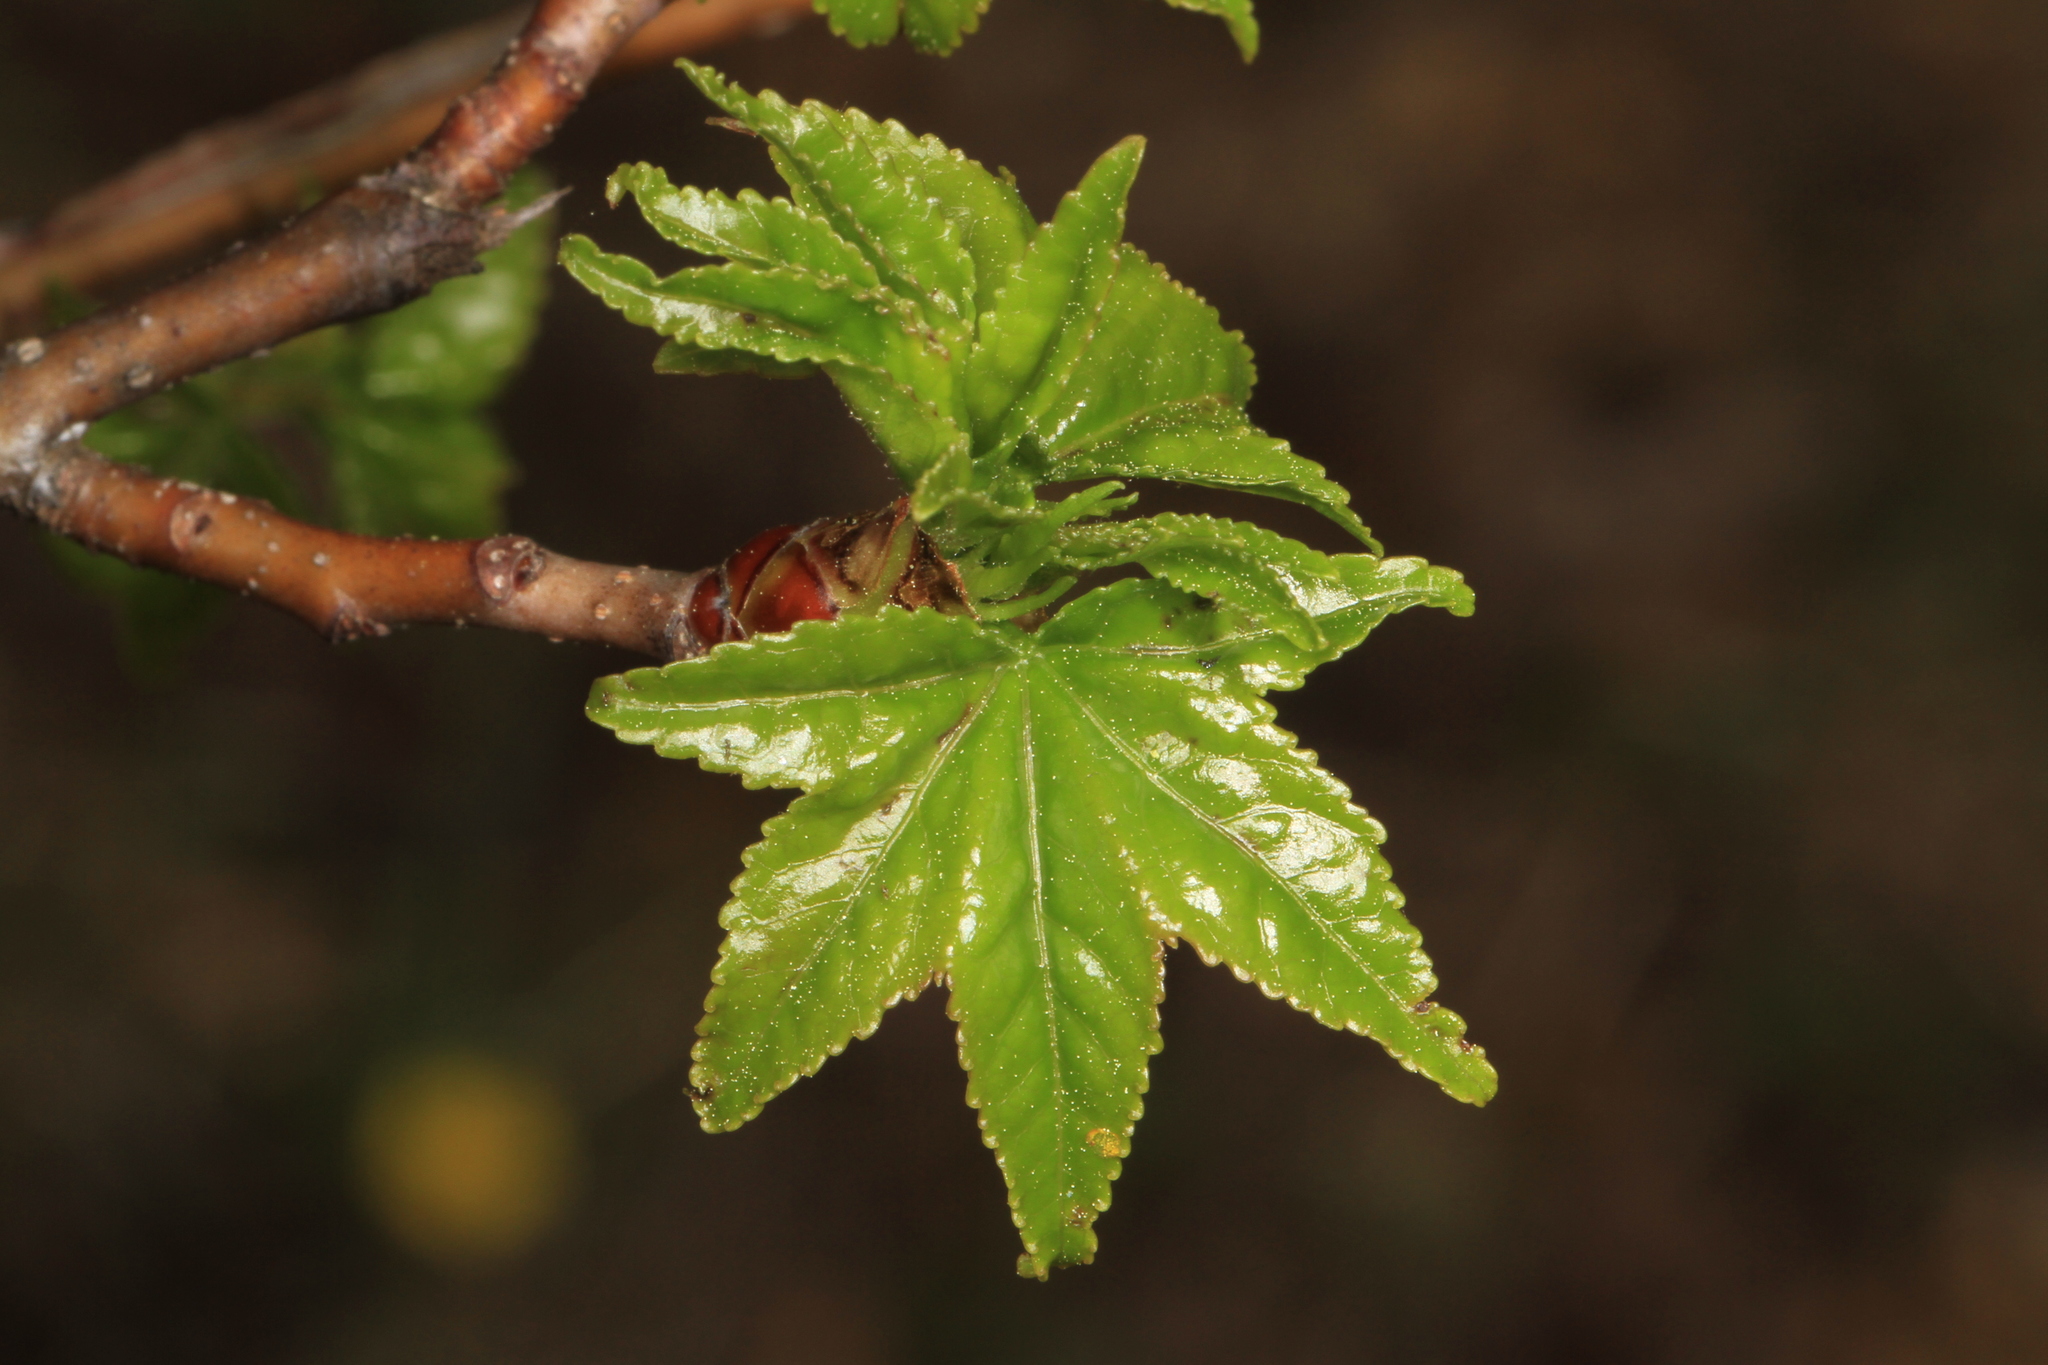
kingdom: Plantae
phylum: Tracheophyta
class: Magnoliopsida
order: Saxifragales
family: Altingiaceae
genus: Liquidambar
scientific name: Liquidambar styraciflua
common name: Sweet gum
